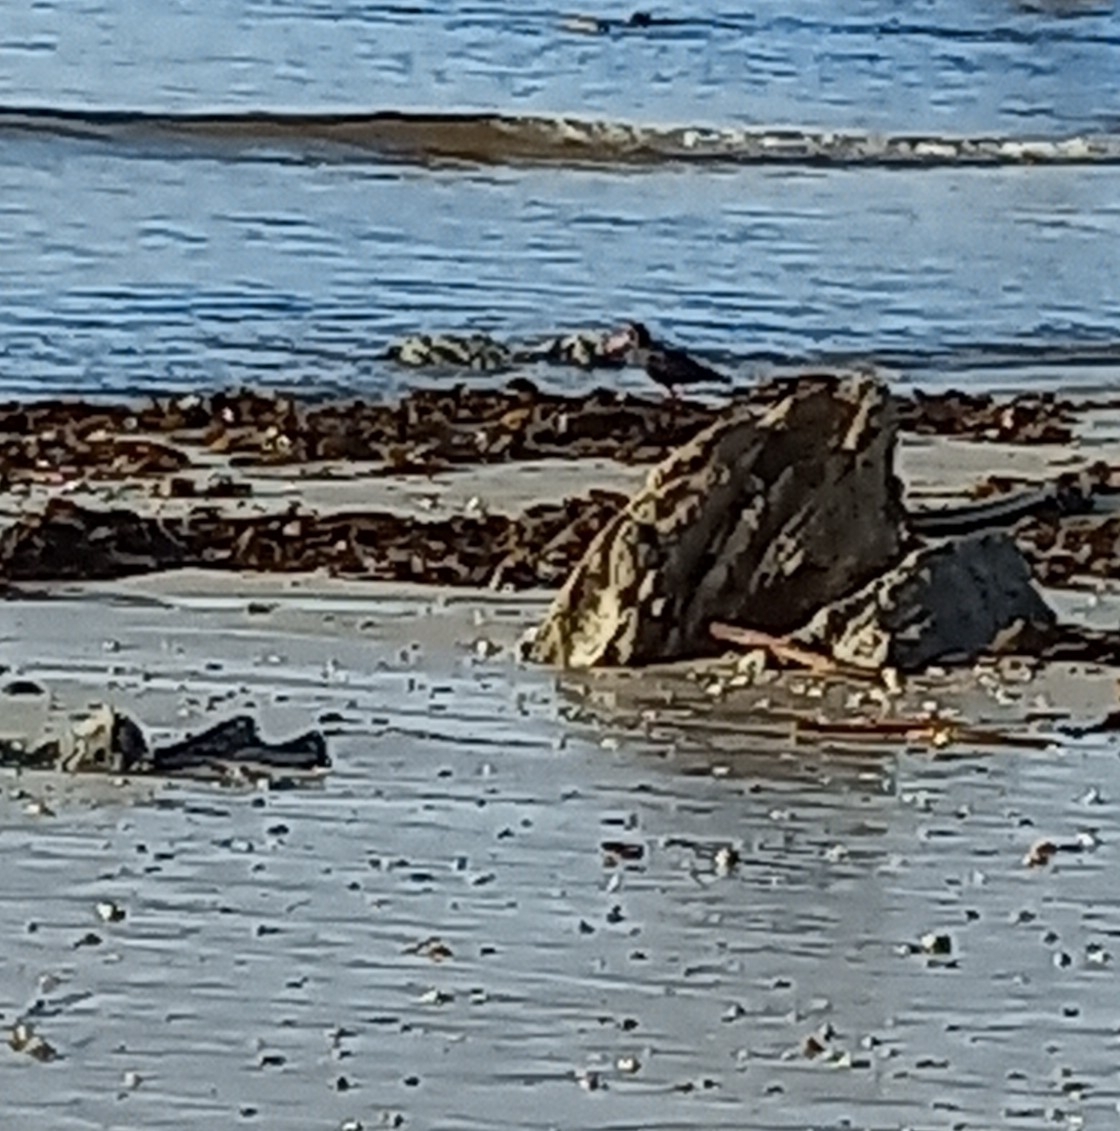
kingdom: Animalia
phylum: Chordata
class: Aves
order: Charadriiformes
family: Haematopodidae
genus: Haematopus
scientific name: Haematopus moquini
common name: African oystercatcher
